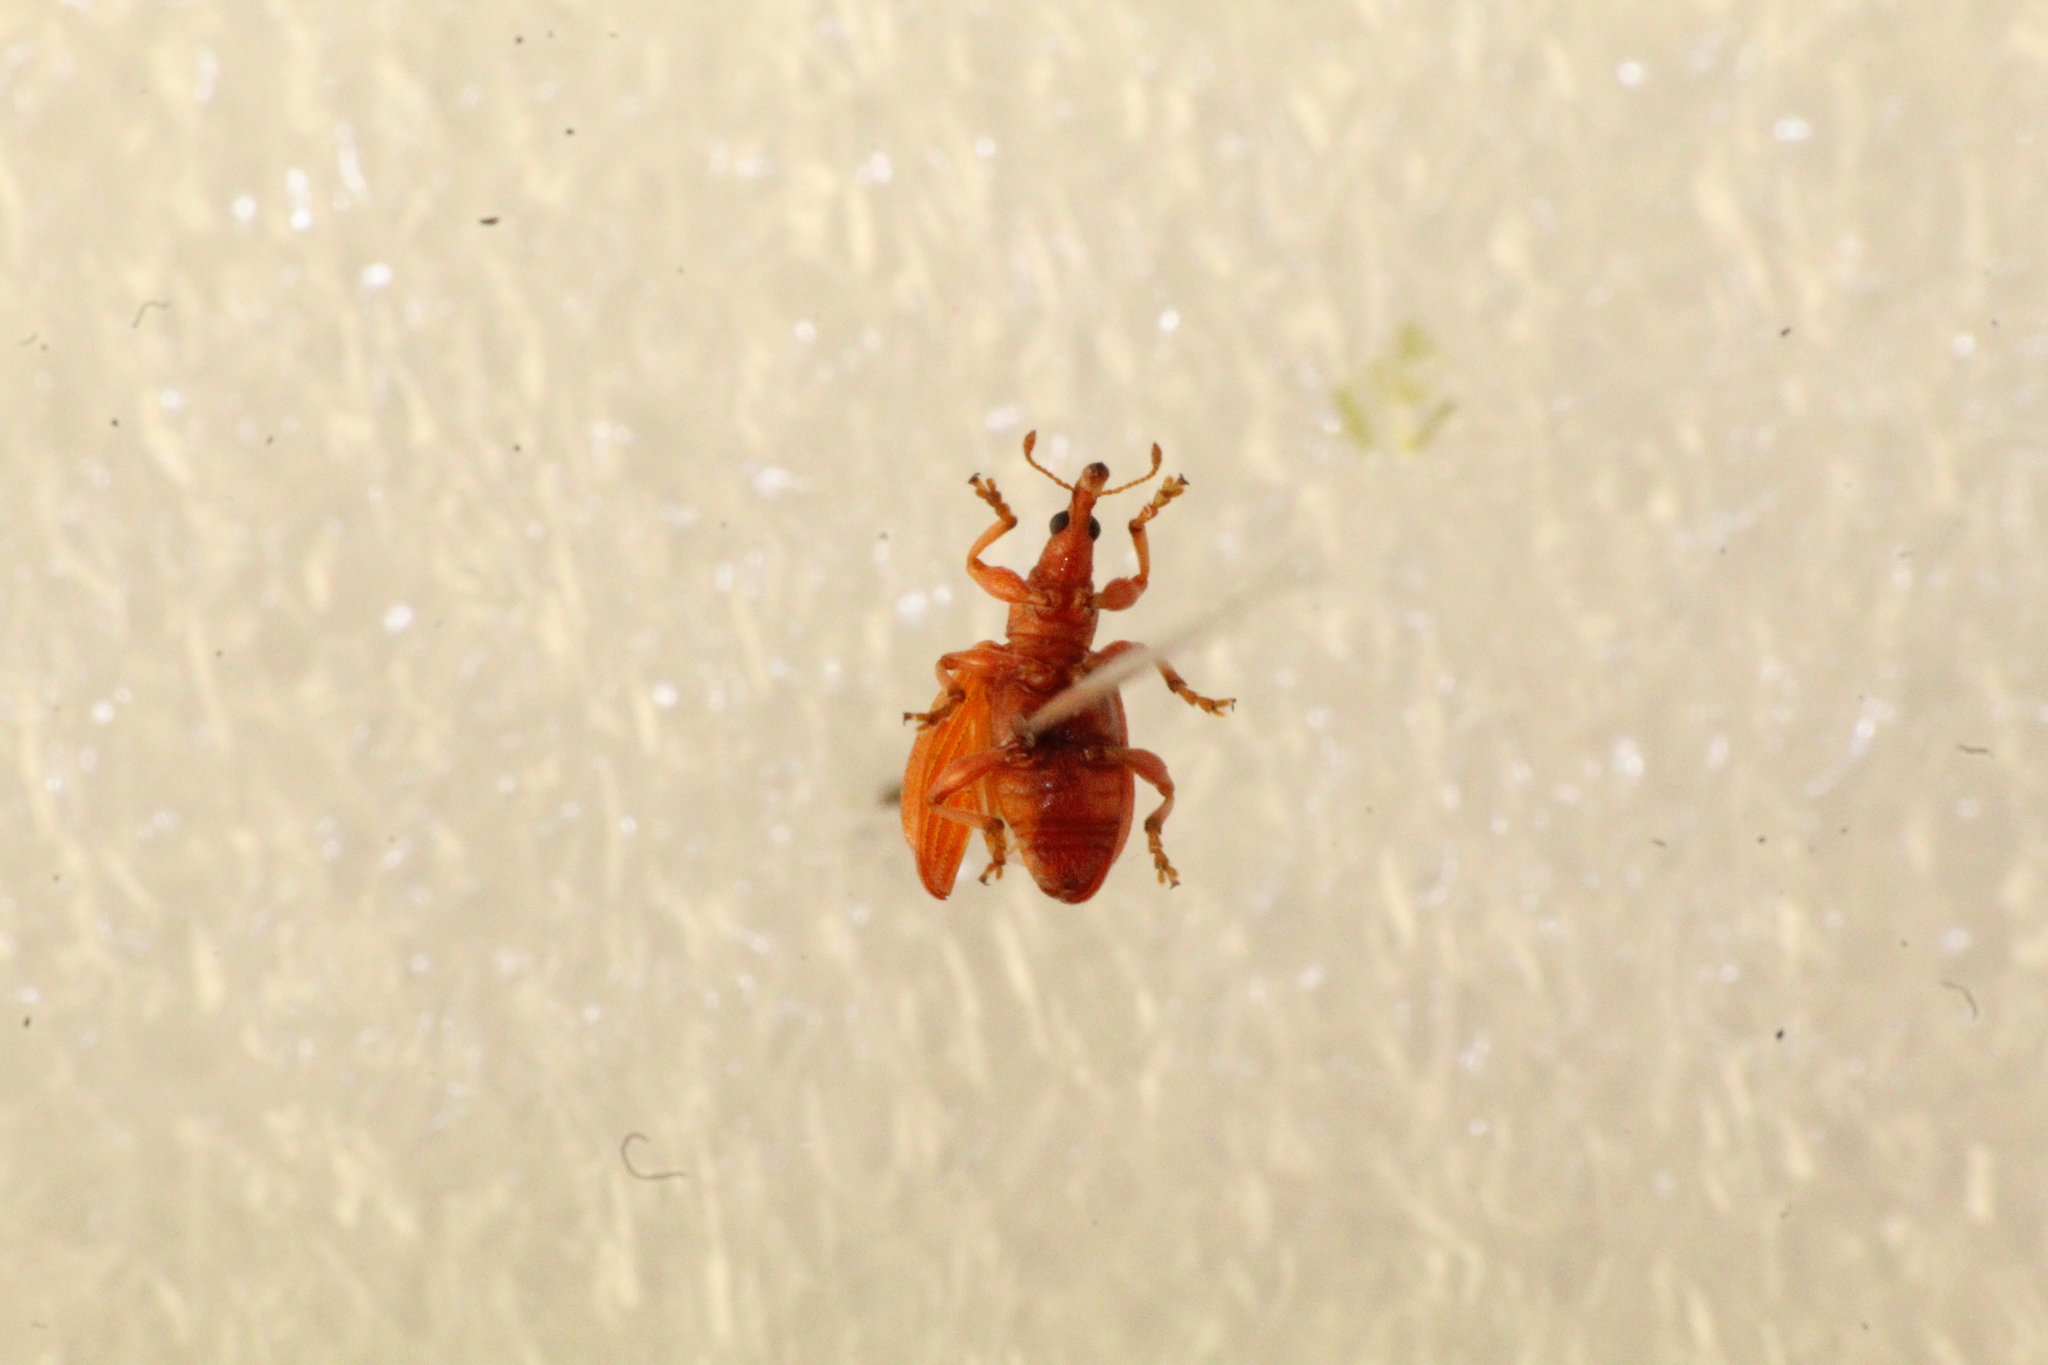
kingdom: Animalia
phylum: Arthropoda
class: Insecta
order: Coleoptera
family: Apionidae
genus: Apion
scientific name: Apion frumentarium
